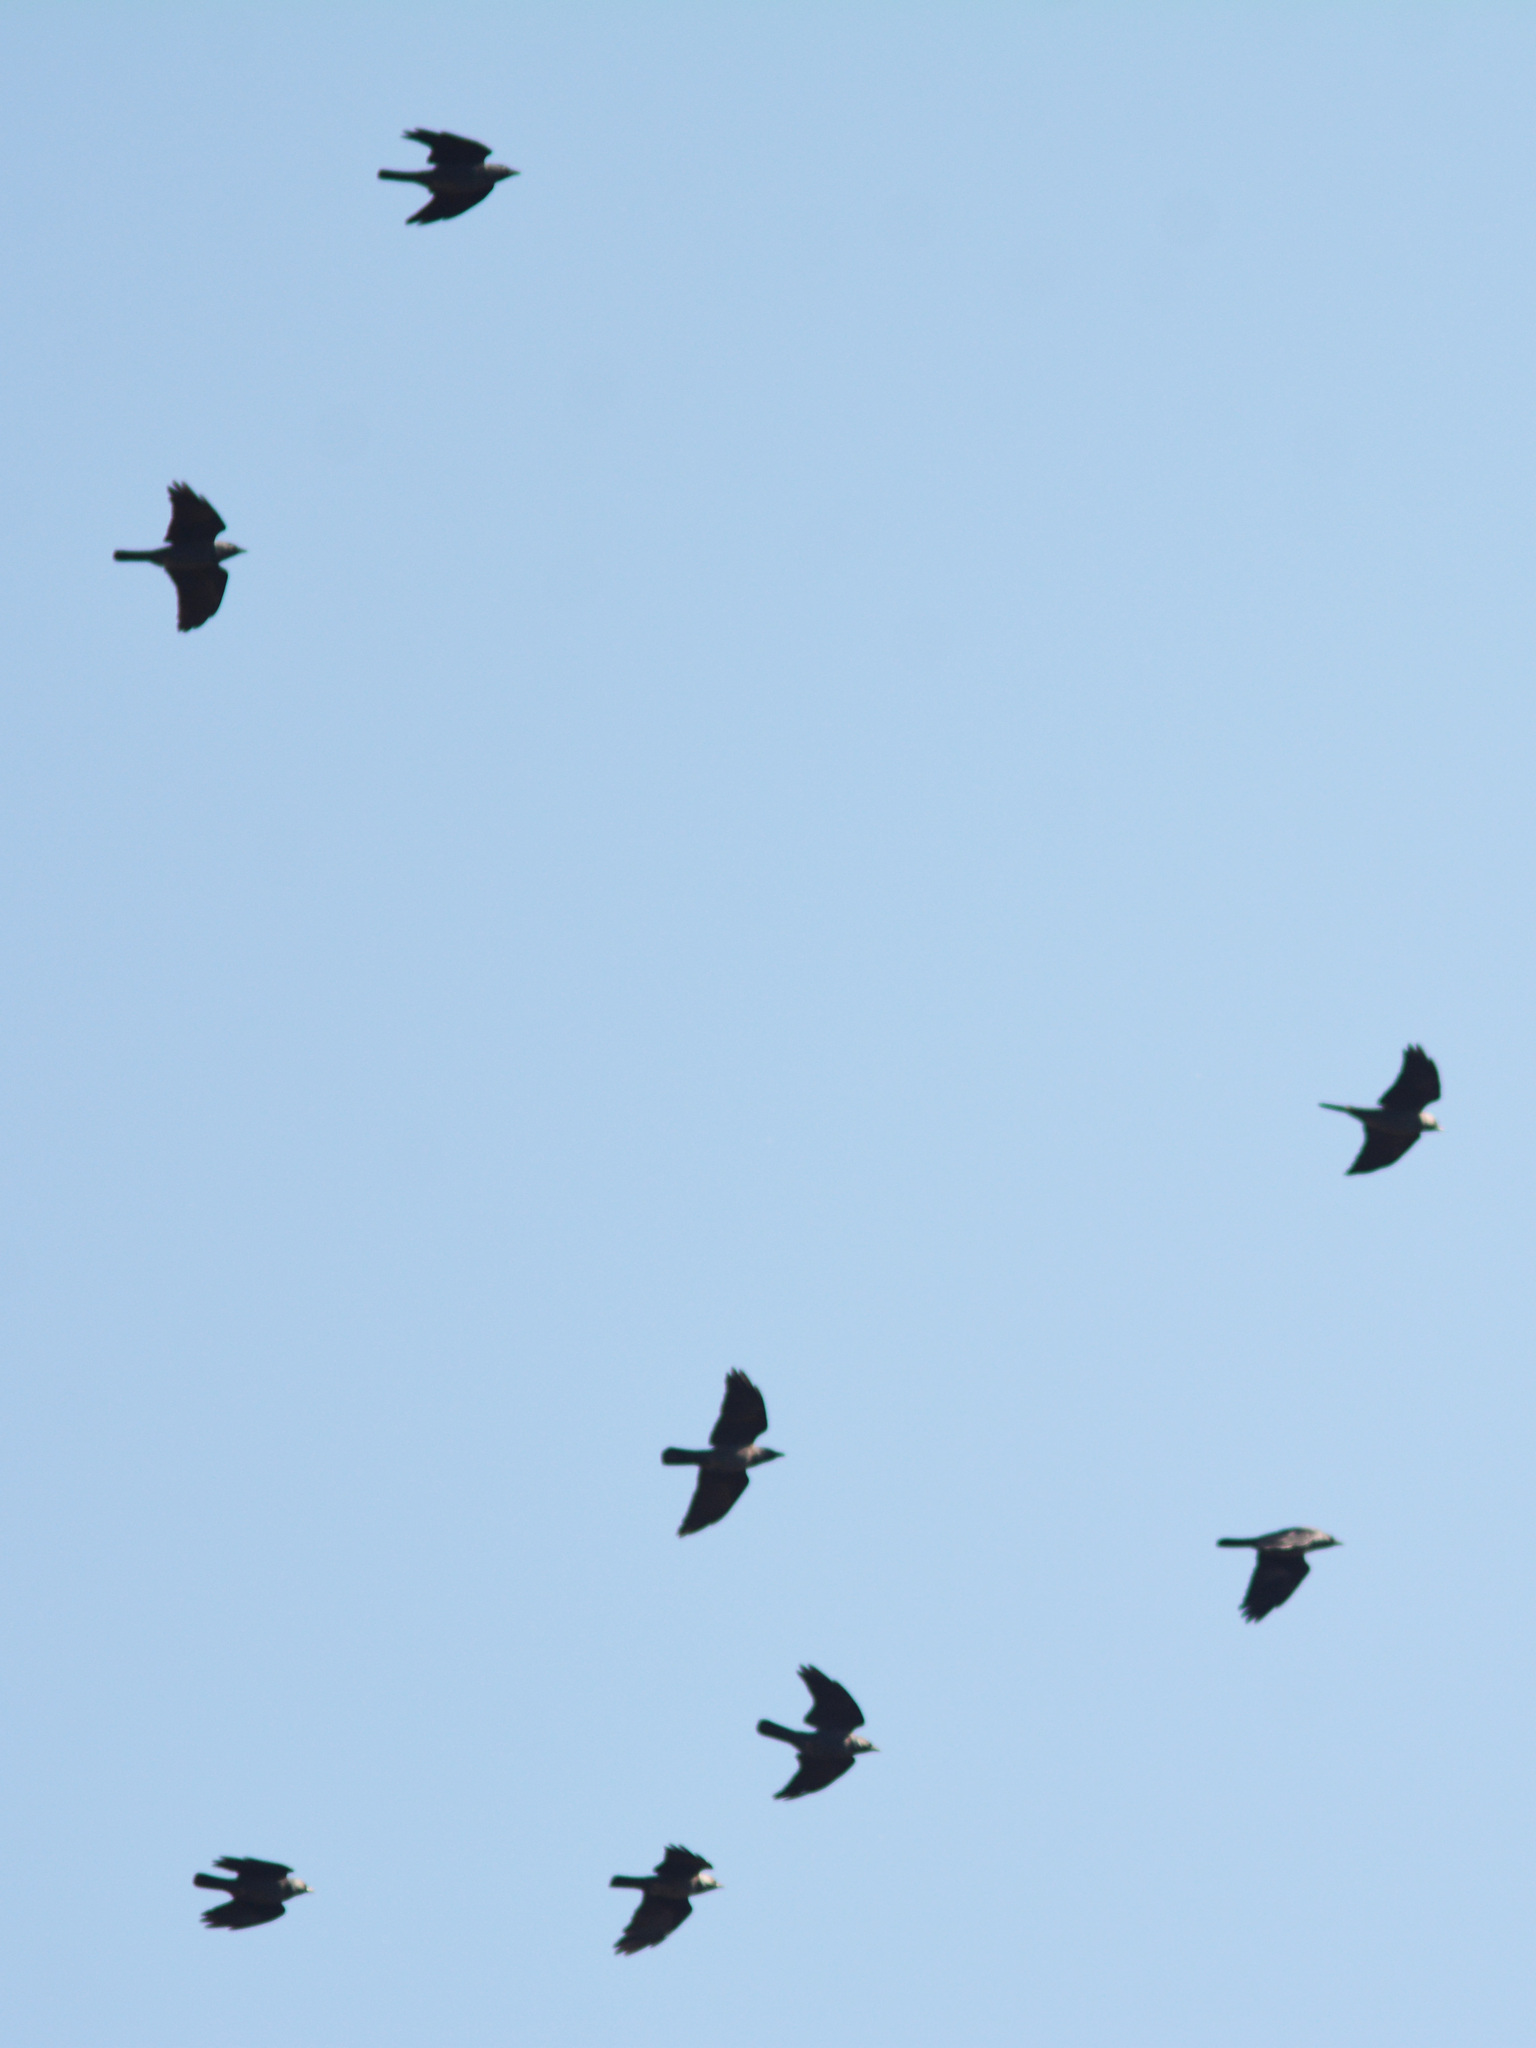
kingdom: Animalia
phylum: Chordata
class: Aves
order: Passeriformes
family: Corvidae
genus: Coloeus
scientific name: Coloeus monedula
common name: Western jackdaw
